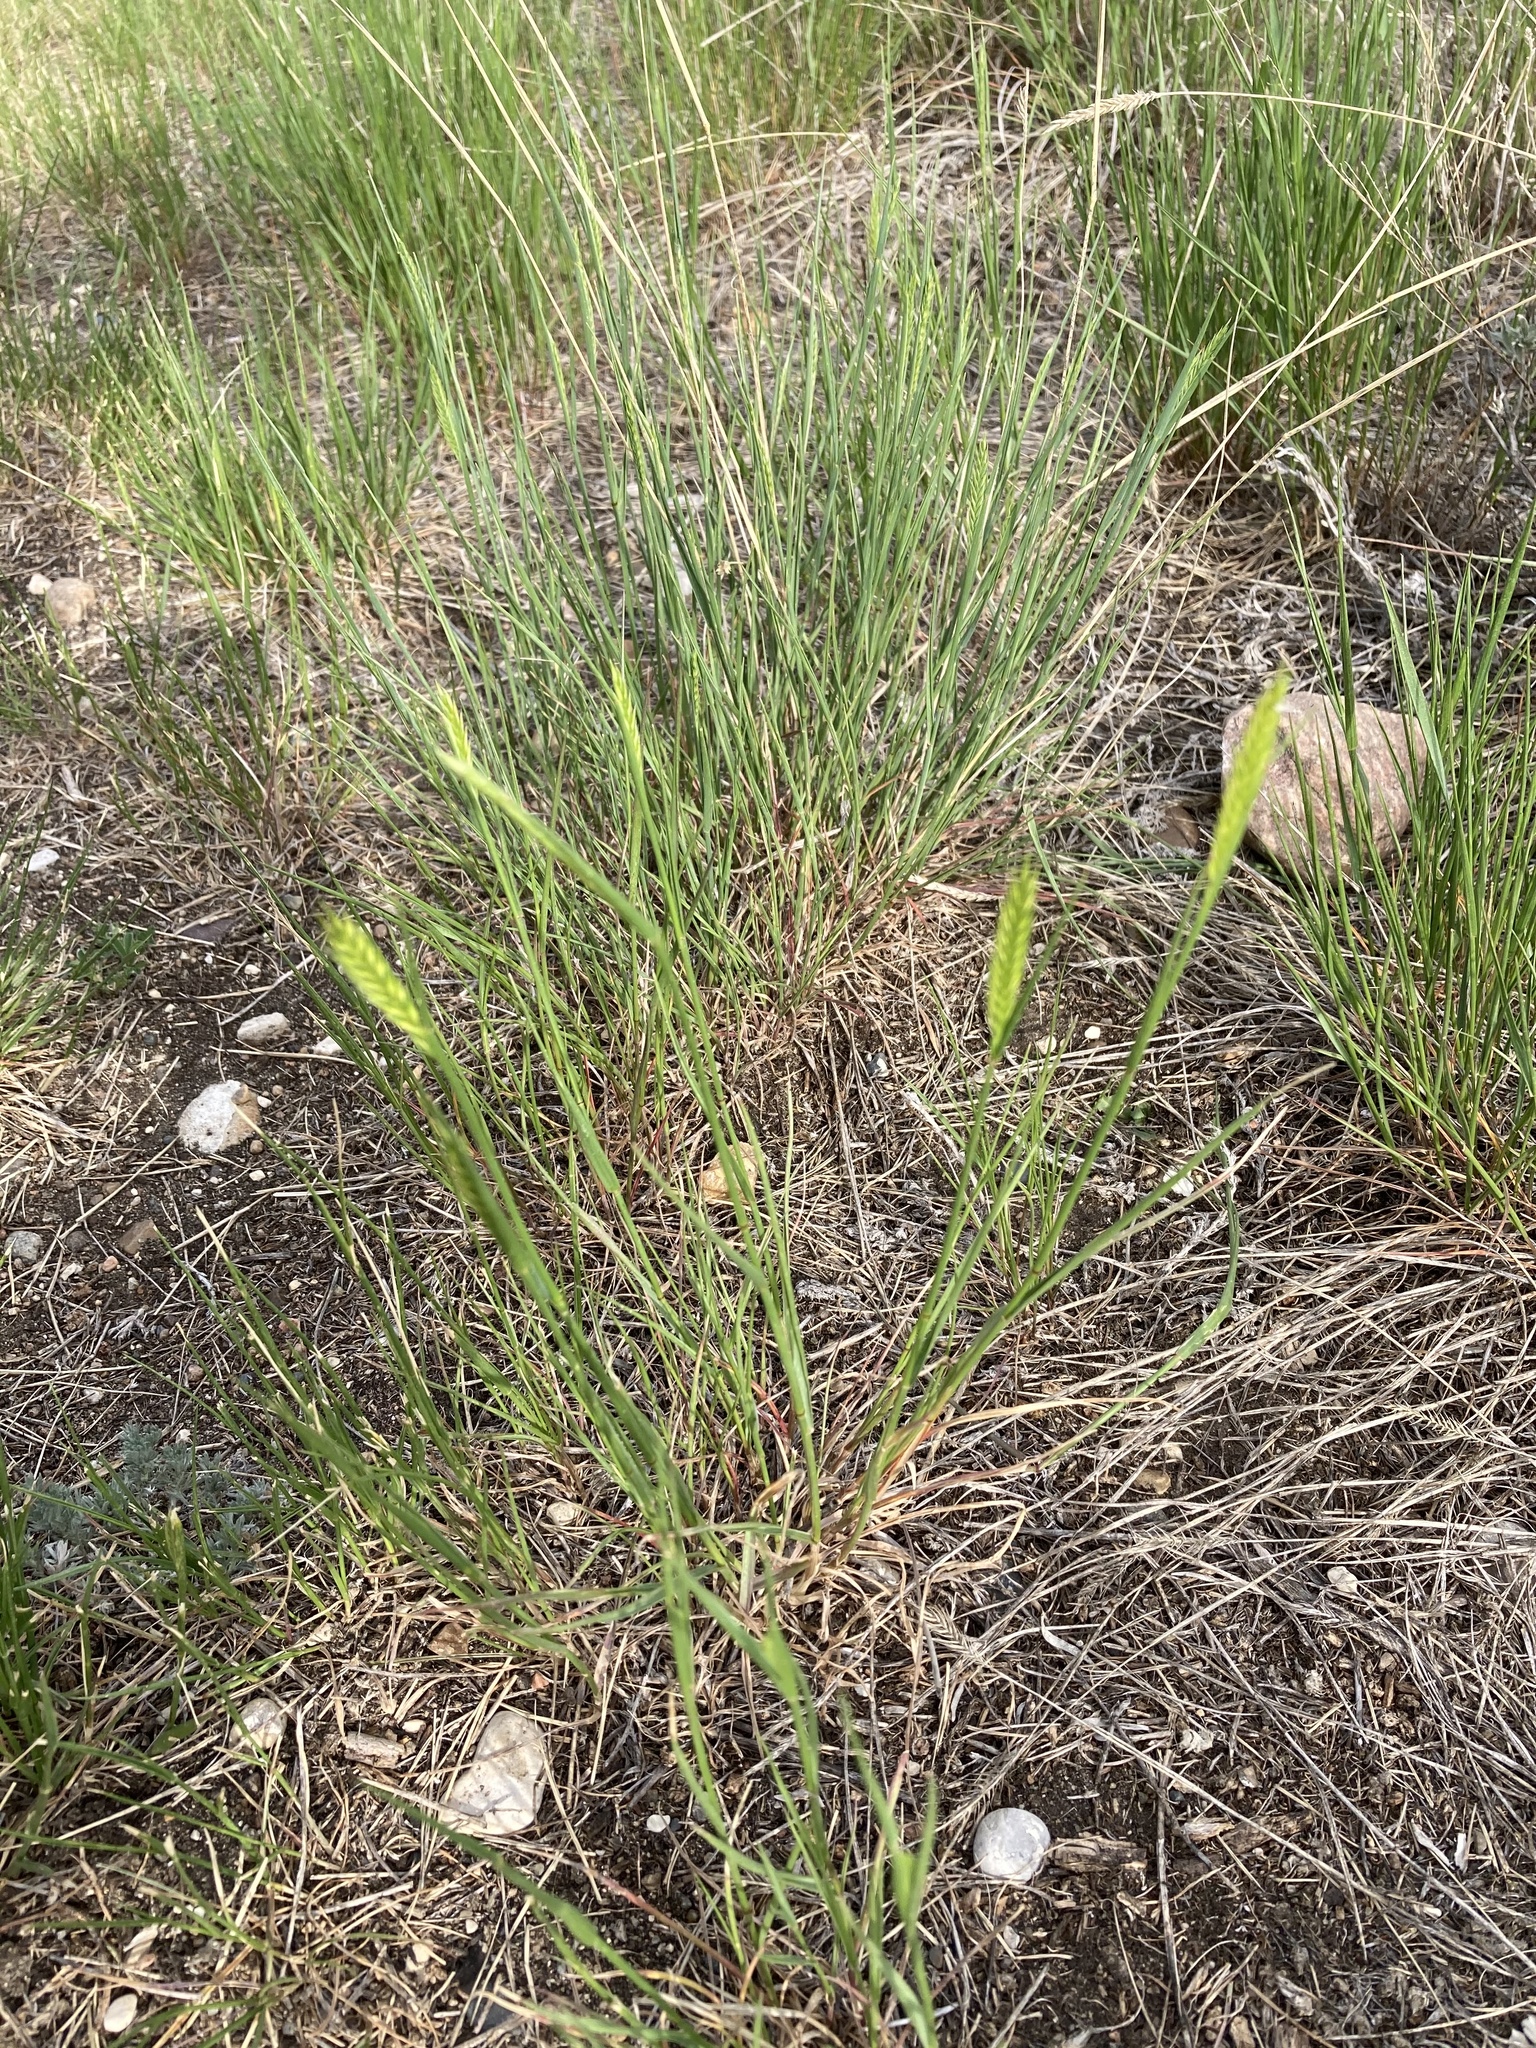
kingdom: Plantae
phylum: Tracheophyta
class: Liliopsida
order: Poales
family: Poaceae
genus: Agropyron
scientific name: Agropyron cristatum
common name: Crested wheatgrass
